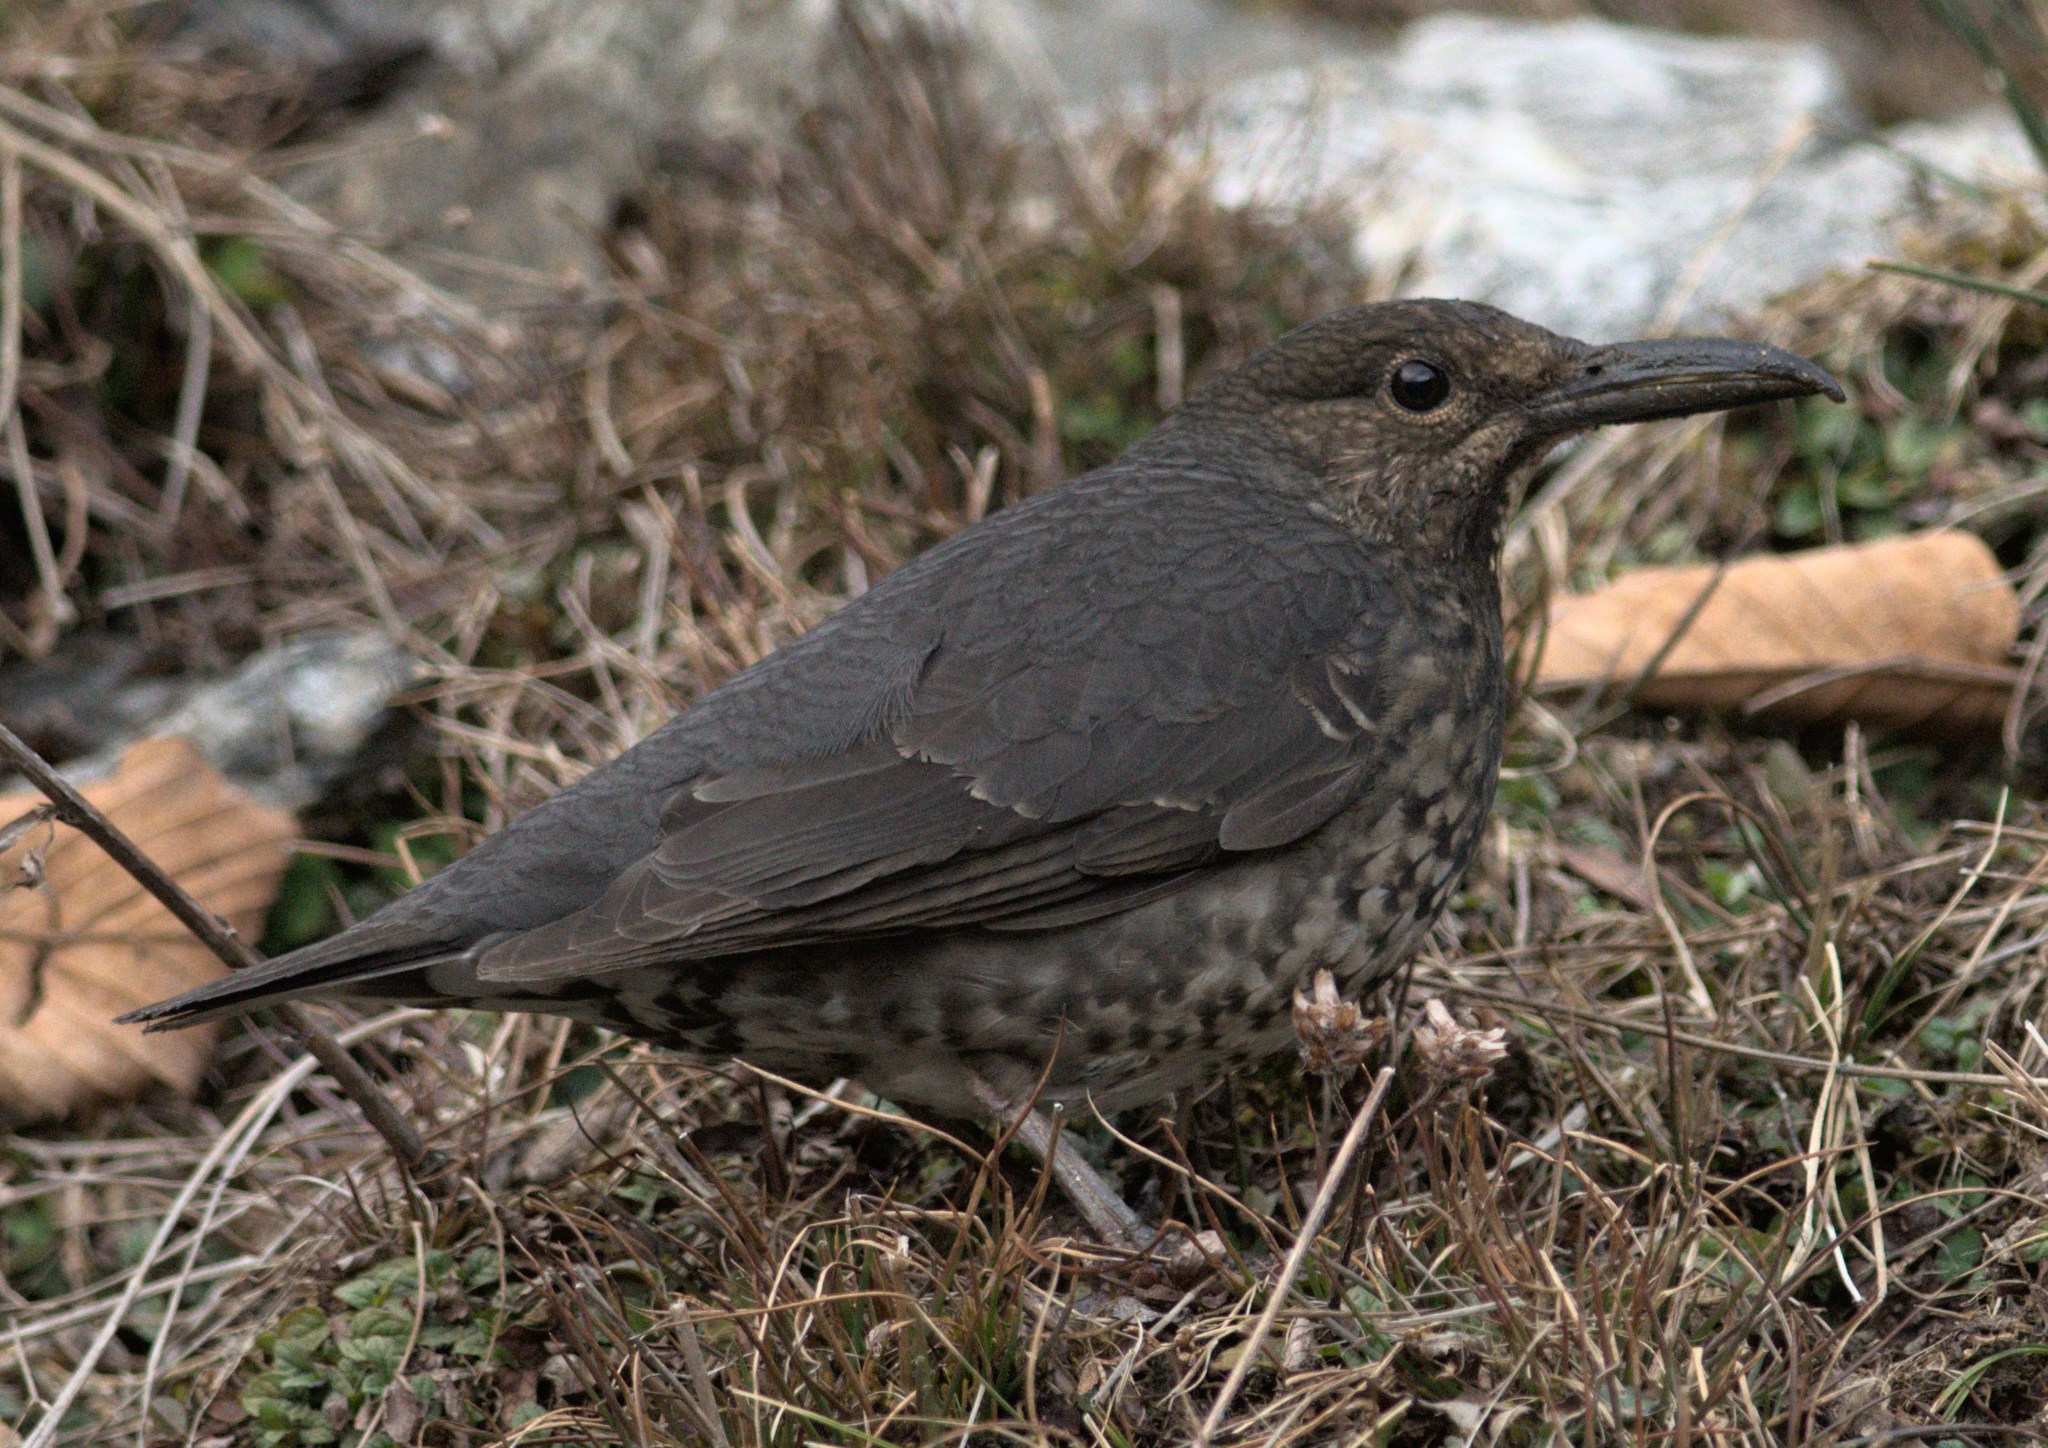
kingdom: Animalia
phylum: Chordata
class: Aves
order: Passeriformes
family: Turdidae
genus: Zoothera
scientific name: Zoothera monticola
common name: Long-billed thrush
